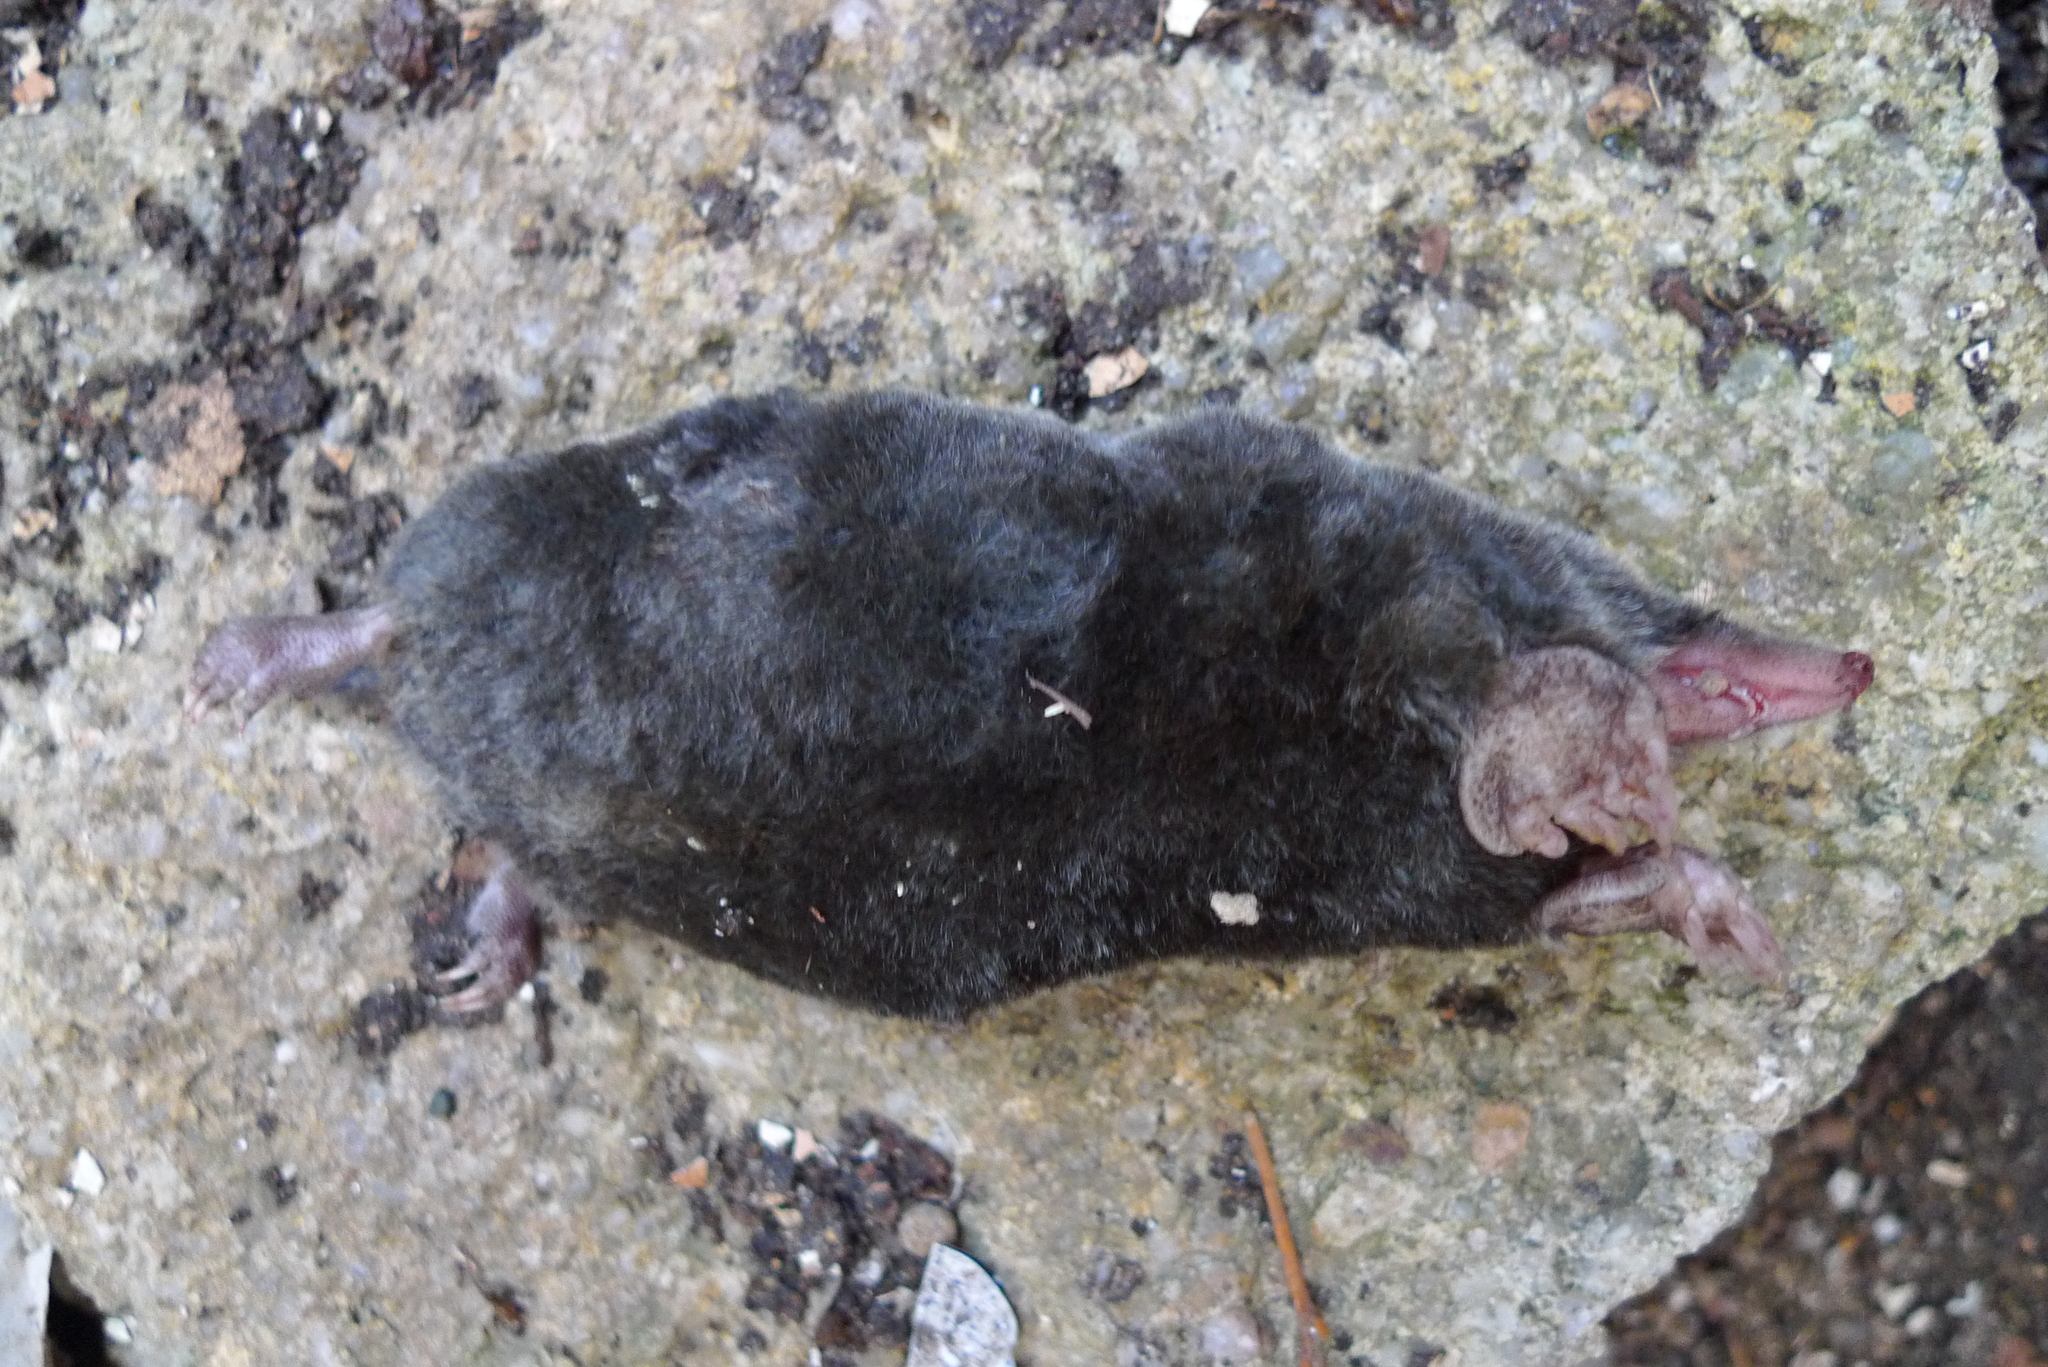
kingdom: Animalia
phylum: Chordata
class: Mammalia
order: Soricomorpha
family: Talpidae
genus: Talpa
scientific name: Talpa europaea
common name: European mole
